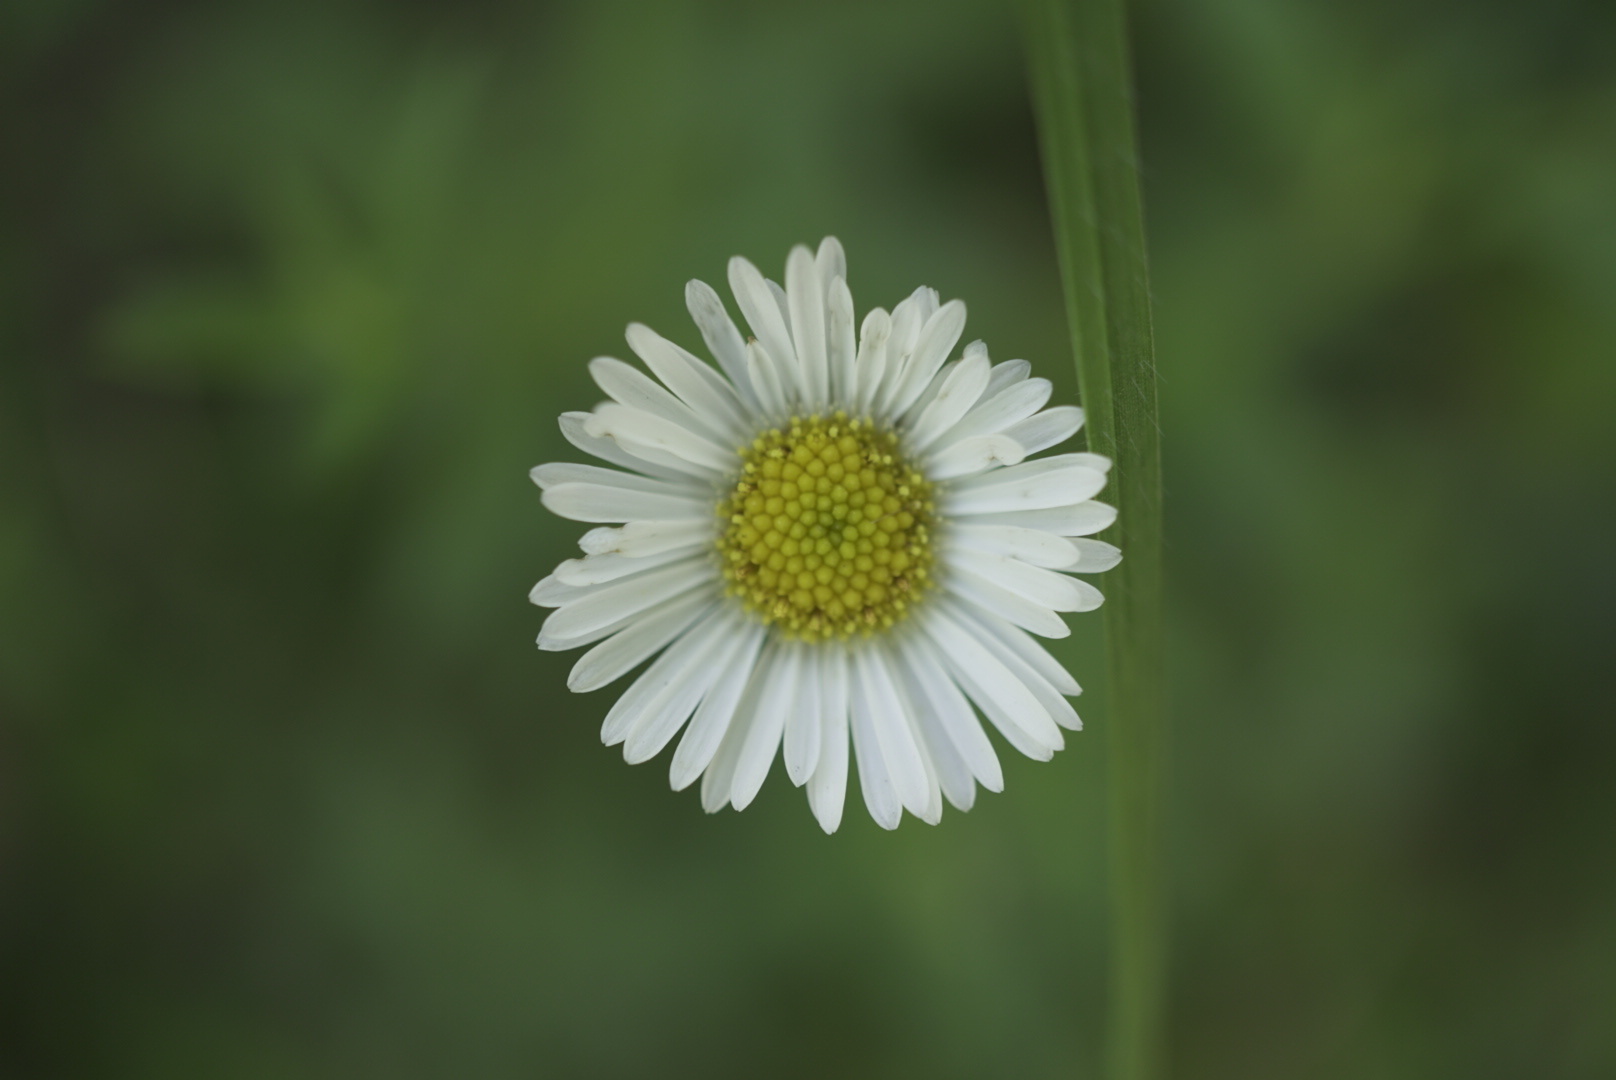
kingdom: Plantae
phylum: Tracheophyta
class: Magnoliopsida
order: Asterales
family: Asteraceae
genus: Erigeron
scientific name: Erigeron karvinskianus
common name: Mexican fleabane
